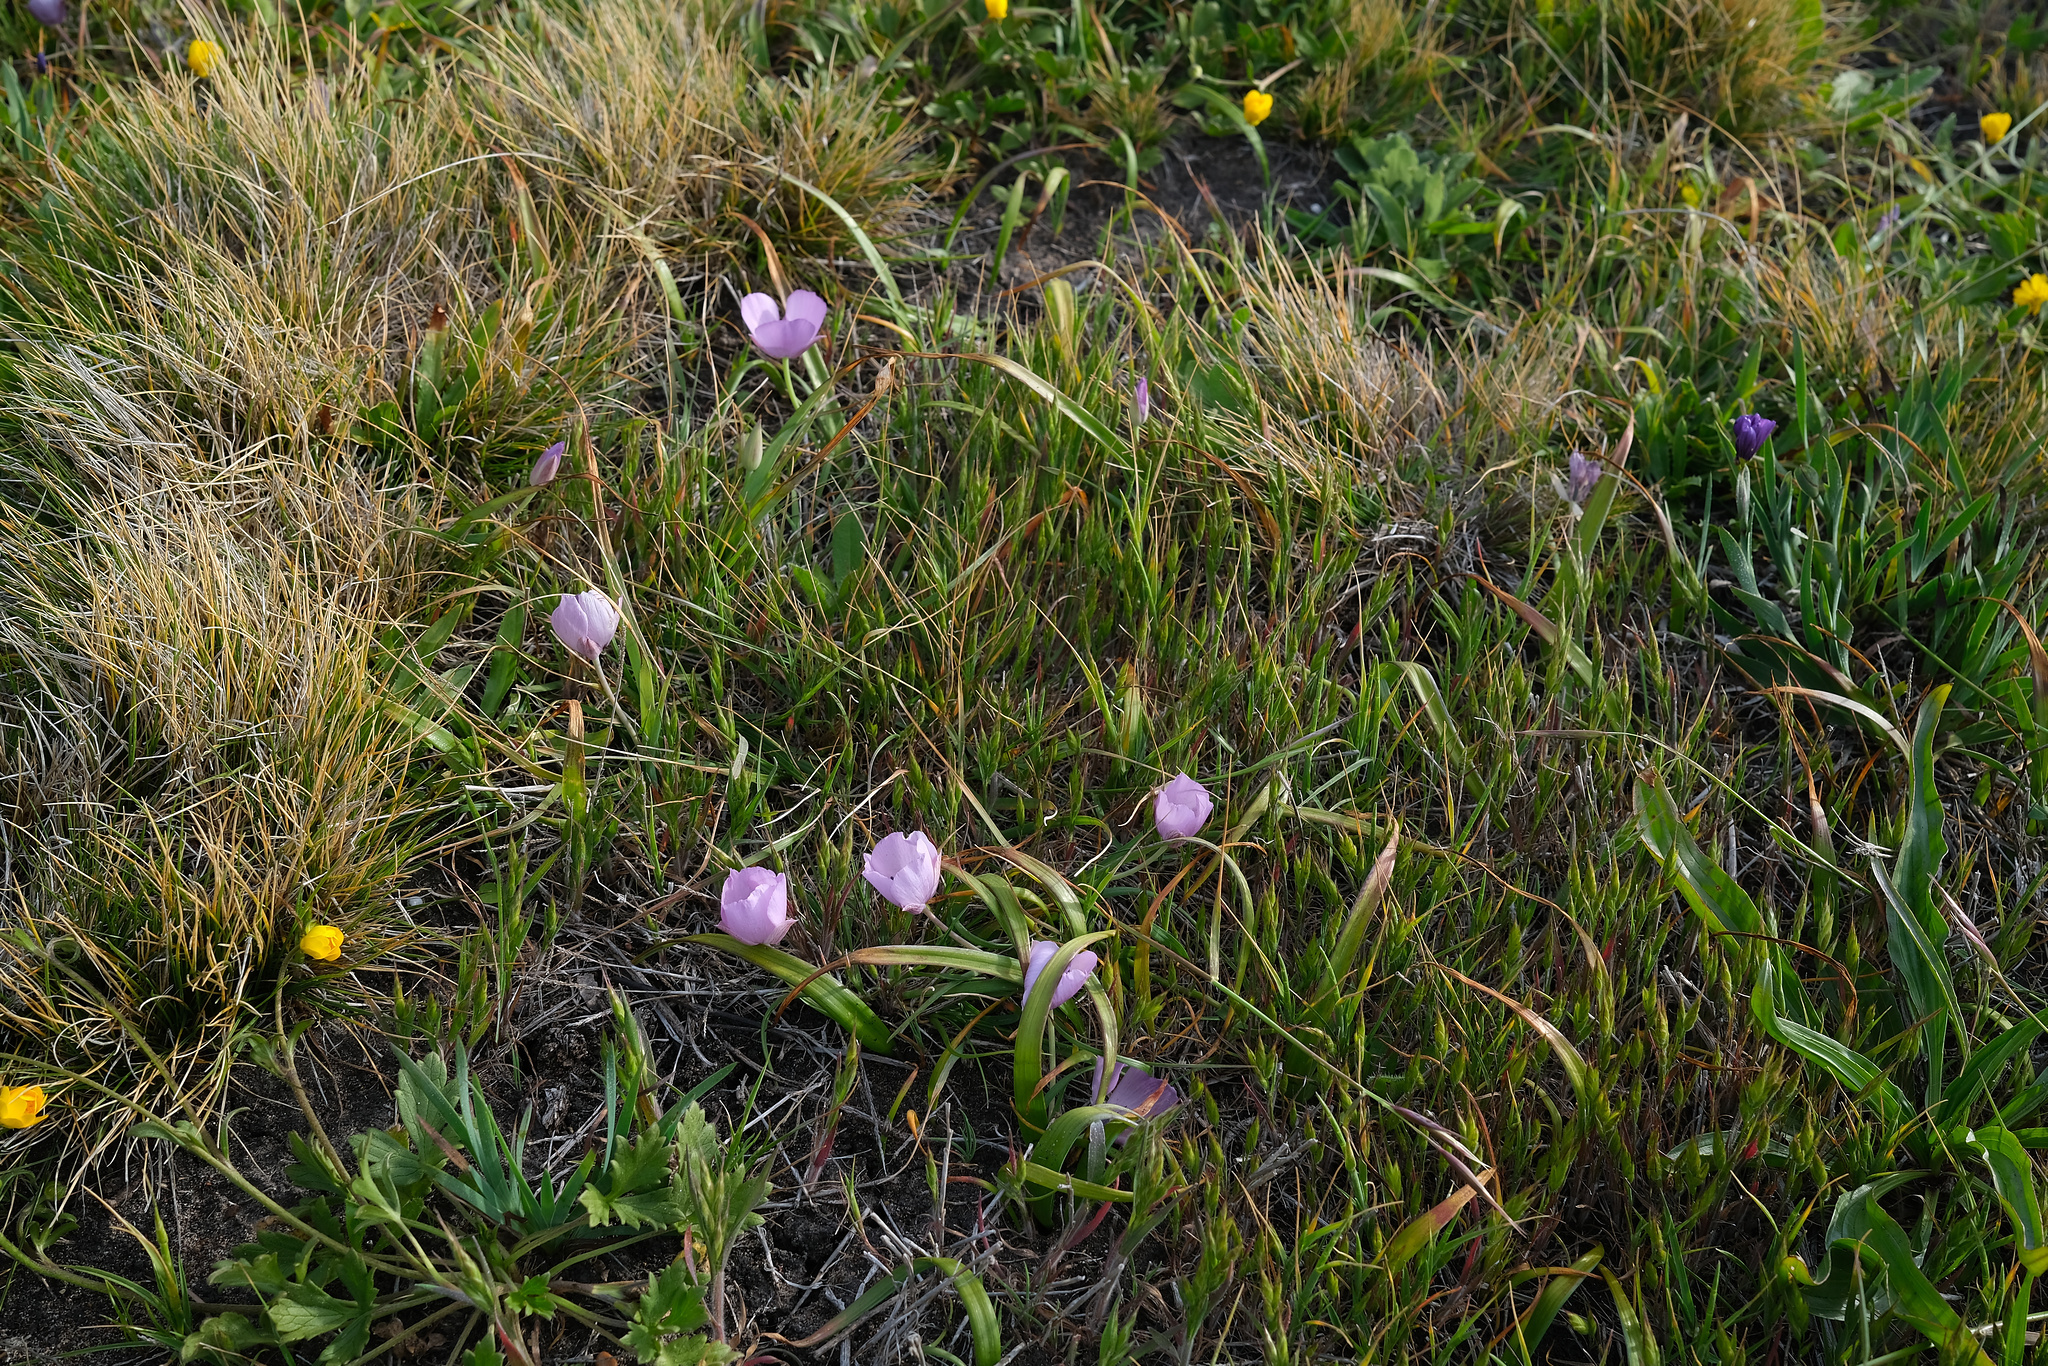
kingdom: Plantae
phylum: Tracheophyta
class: Liliopsida
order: Liliales
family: Liliaceae
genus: Calochortus
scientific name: Calochortus uniflorus
